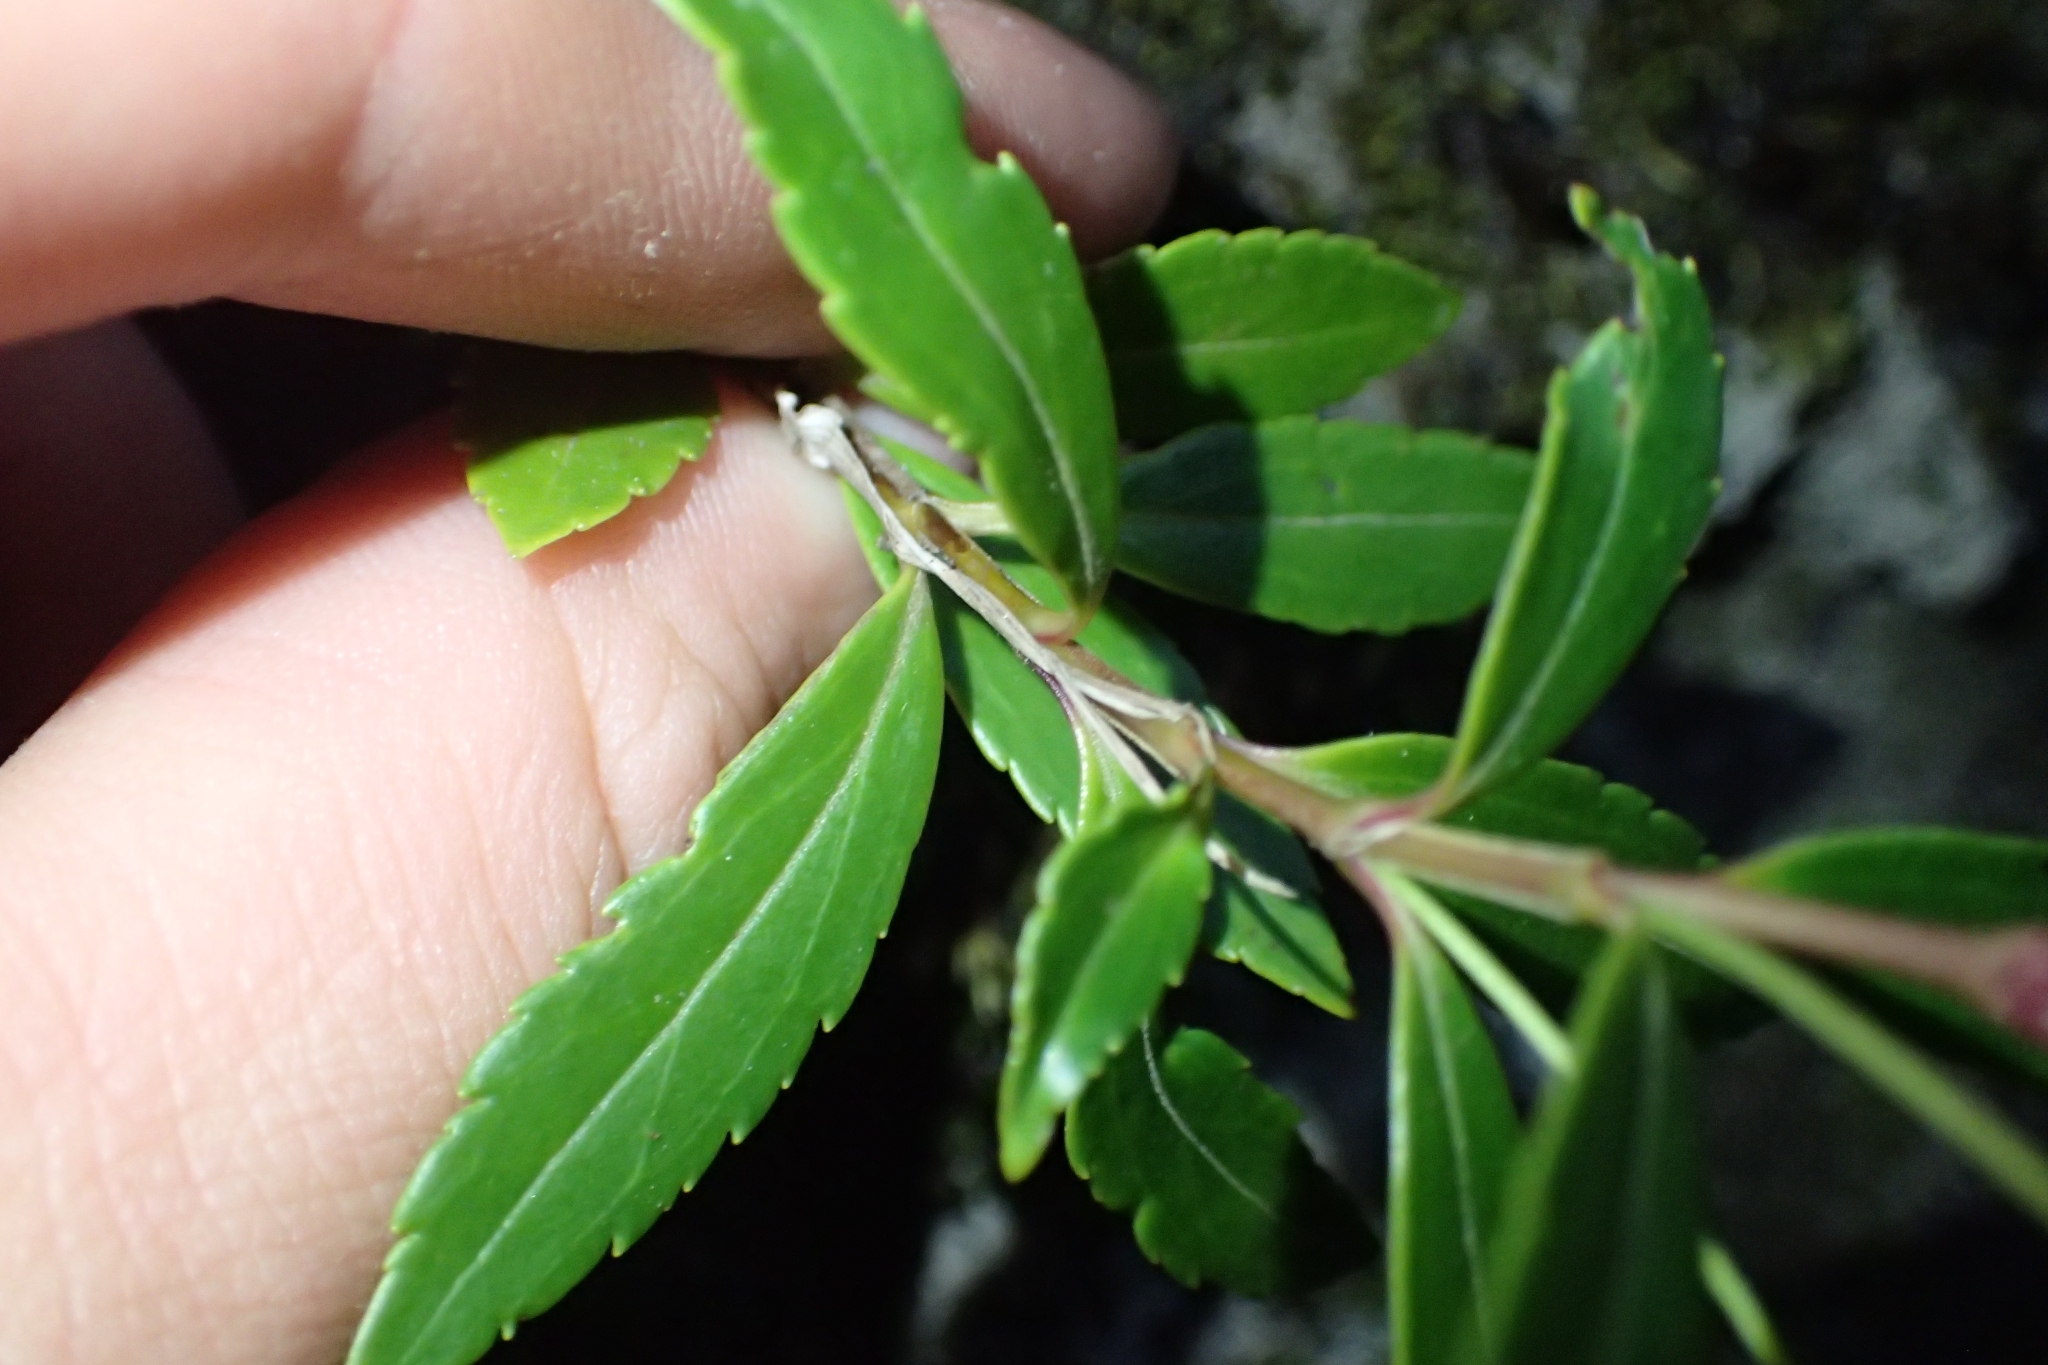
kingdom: Plantae
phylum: Tracheophyta
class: Magnoliopsida
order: Lamiales
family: Plantaginaceae
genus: Veronica
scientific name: Veronica lanceolata
